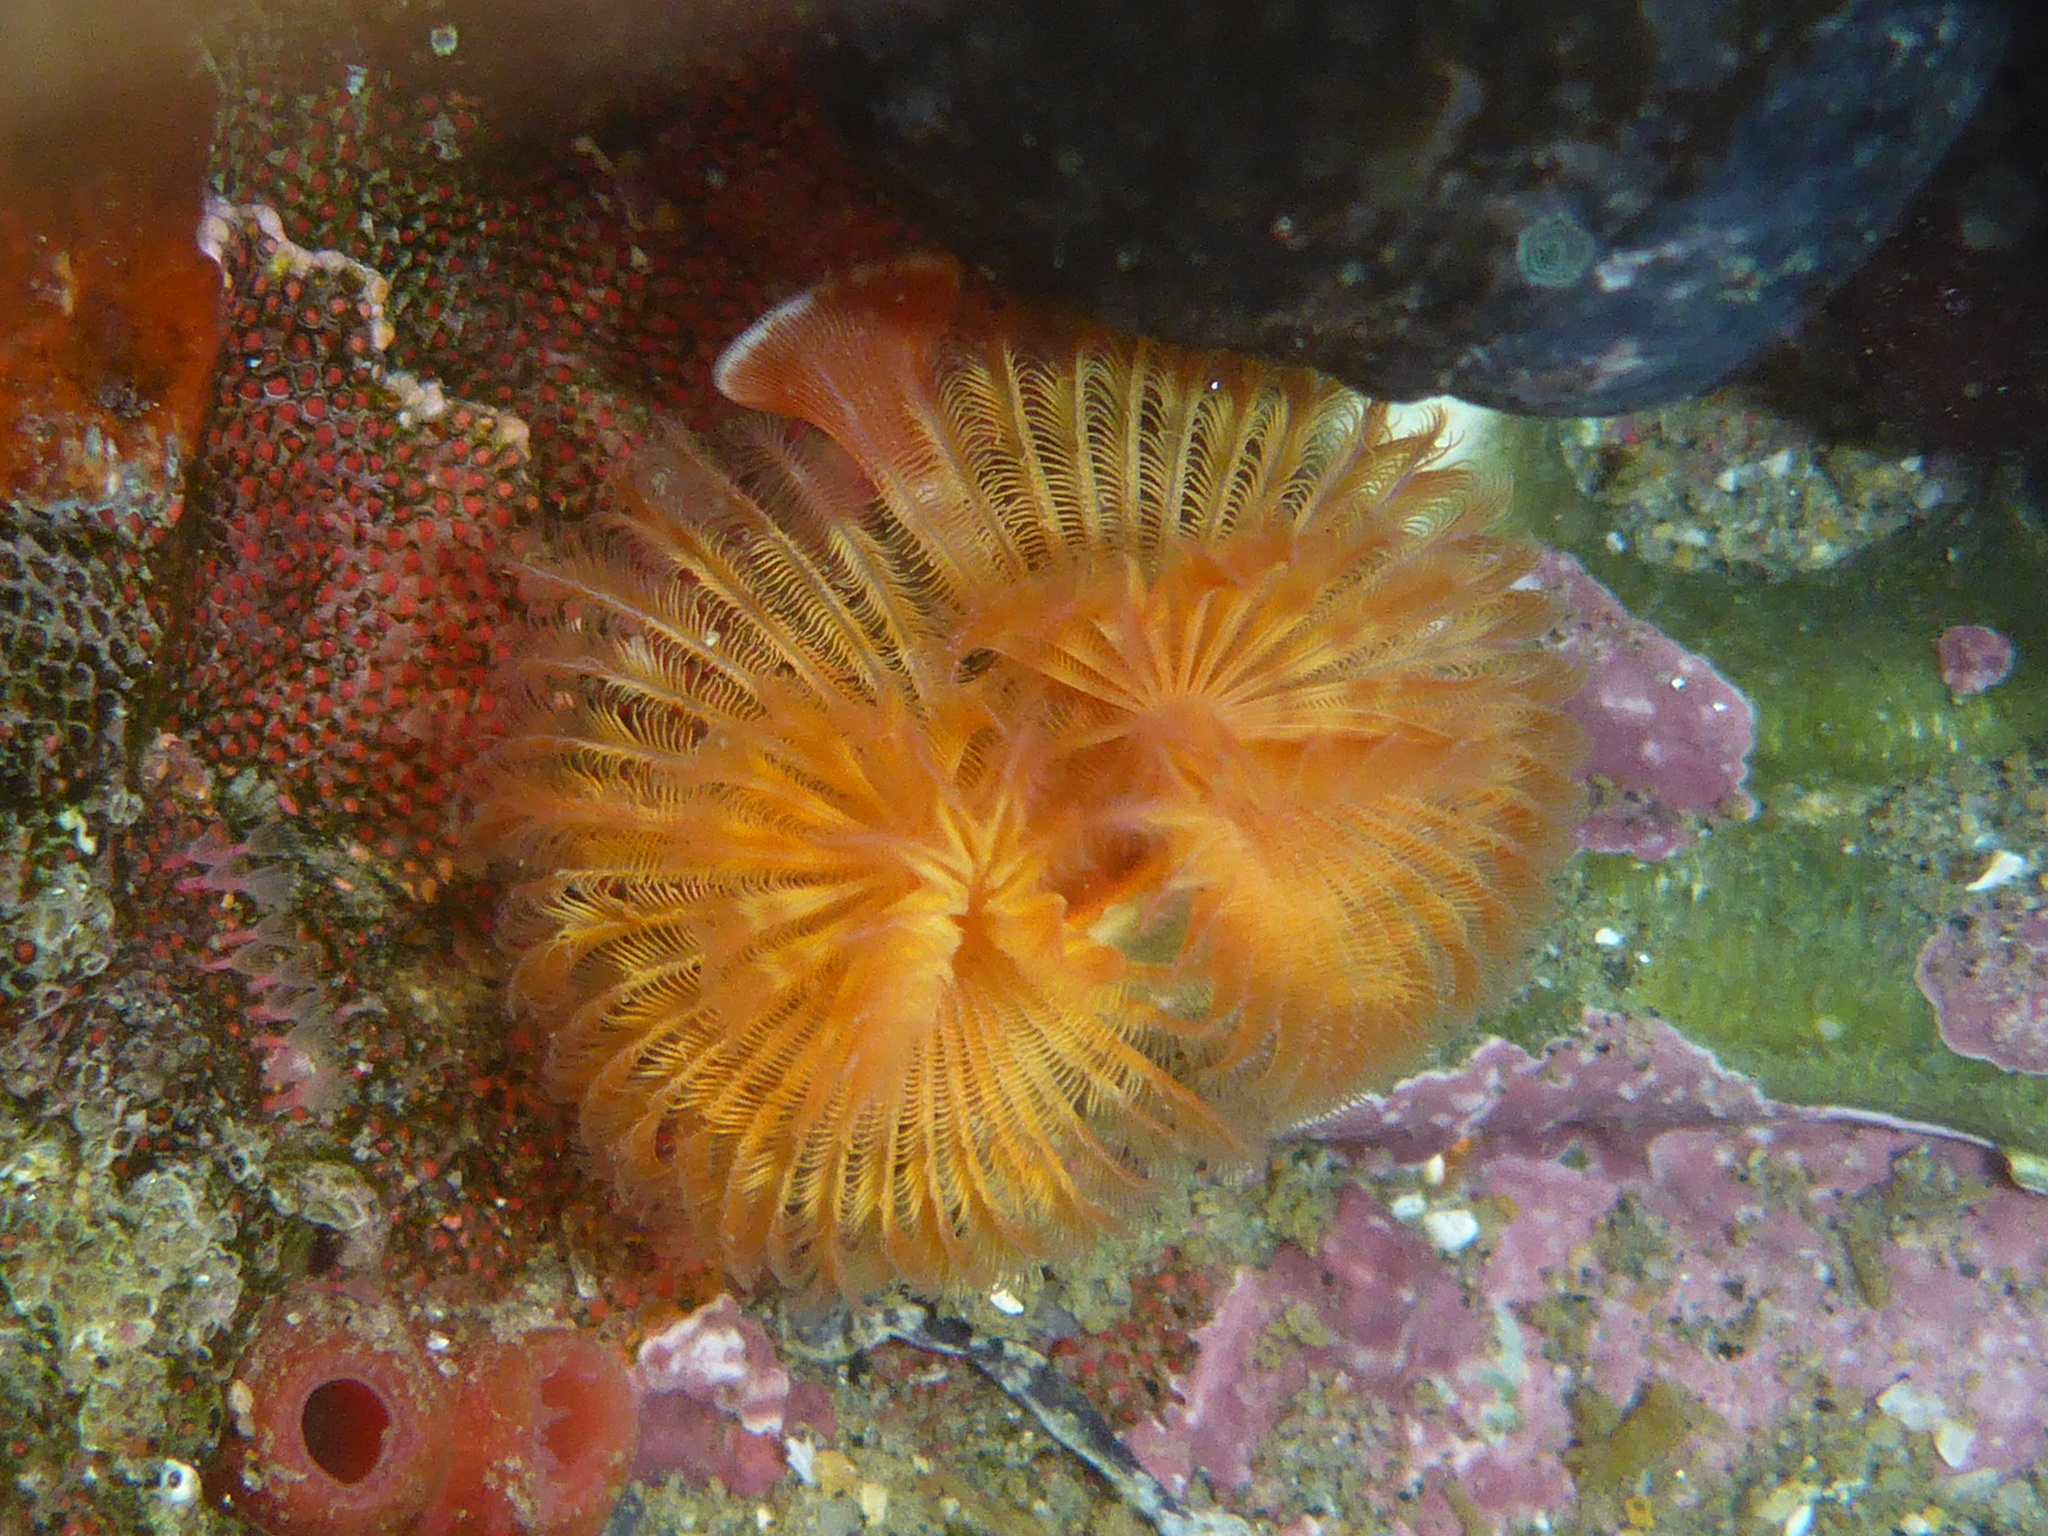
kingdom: Animalia
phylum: Annelida
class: Polychaeta
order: Sabellida
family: Serpulidae
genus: Serpula
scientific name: Serpula columbiana
